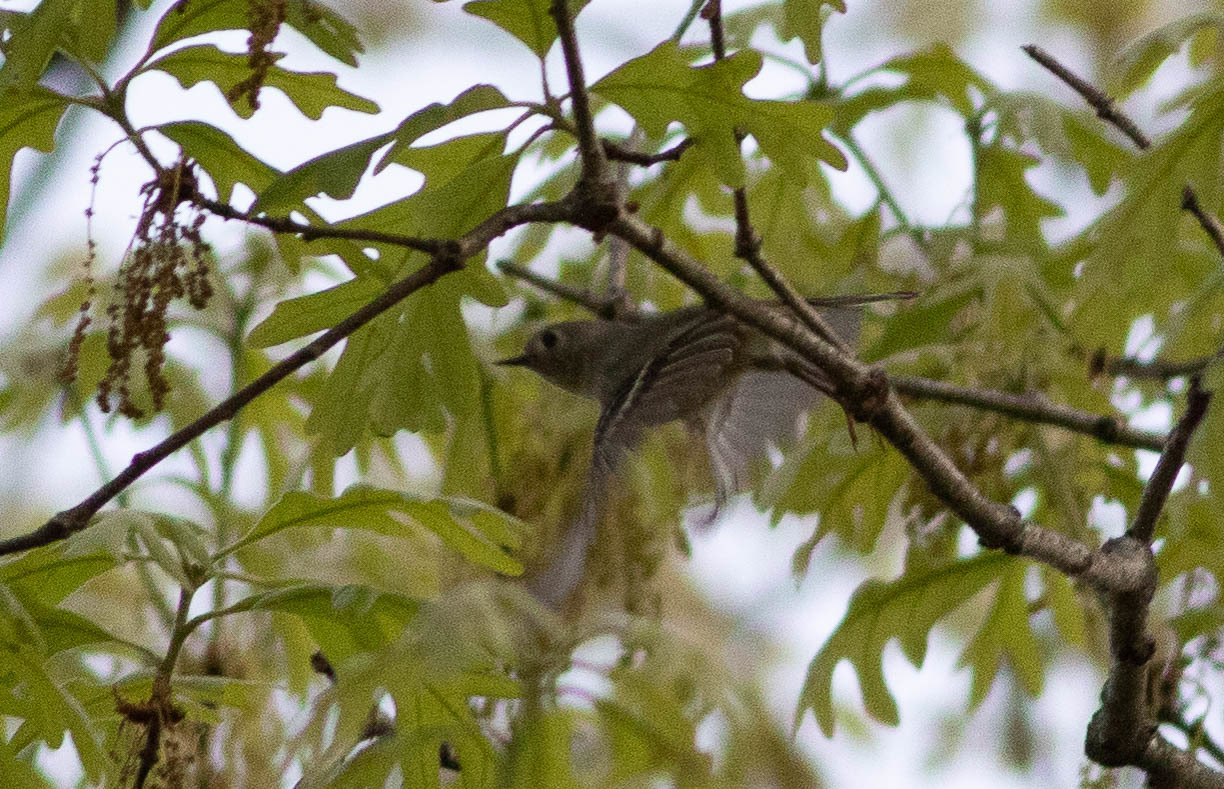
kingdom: Animalia
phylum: Chordata
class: Aves
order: Passeriformes
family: Regulidae
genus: Regulus
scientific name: Regulus calendula
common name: Ruby-crowned kinglet
